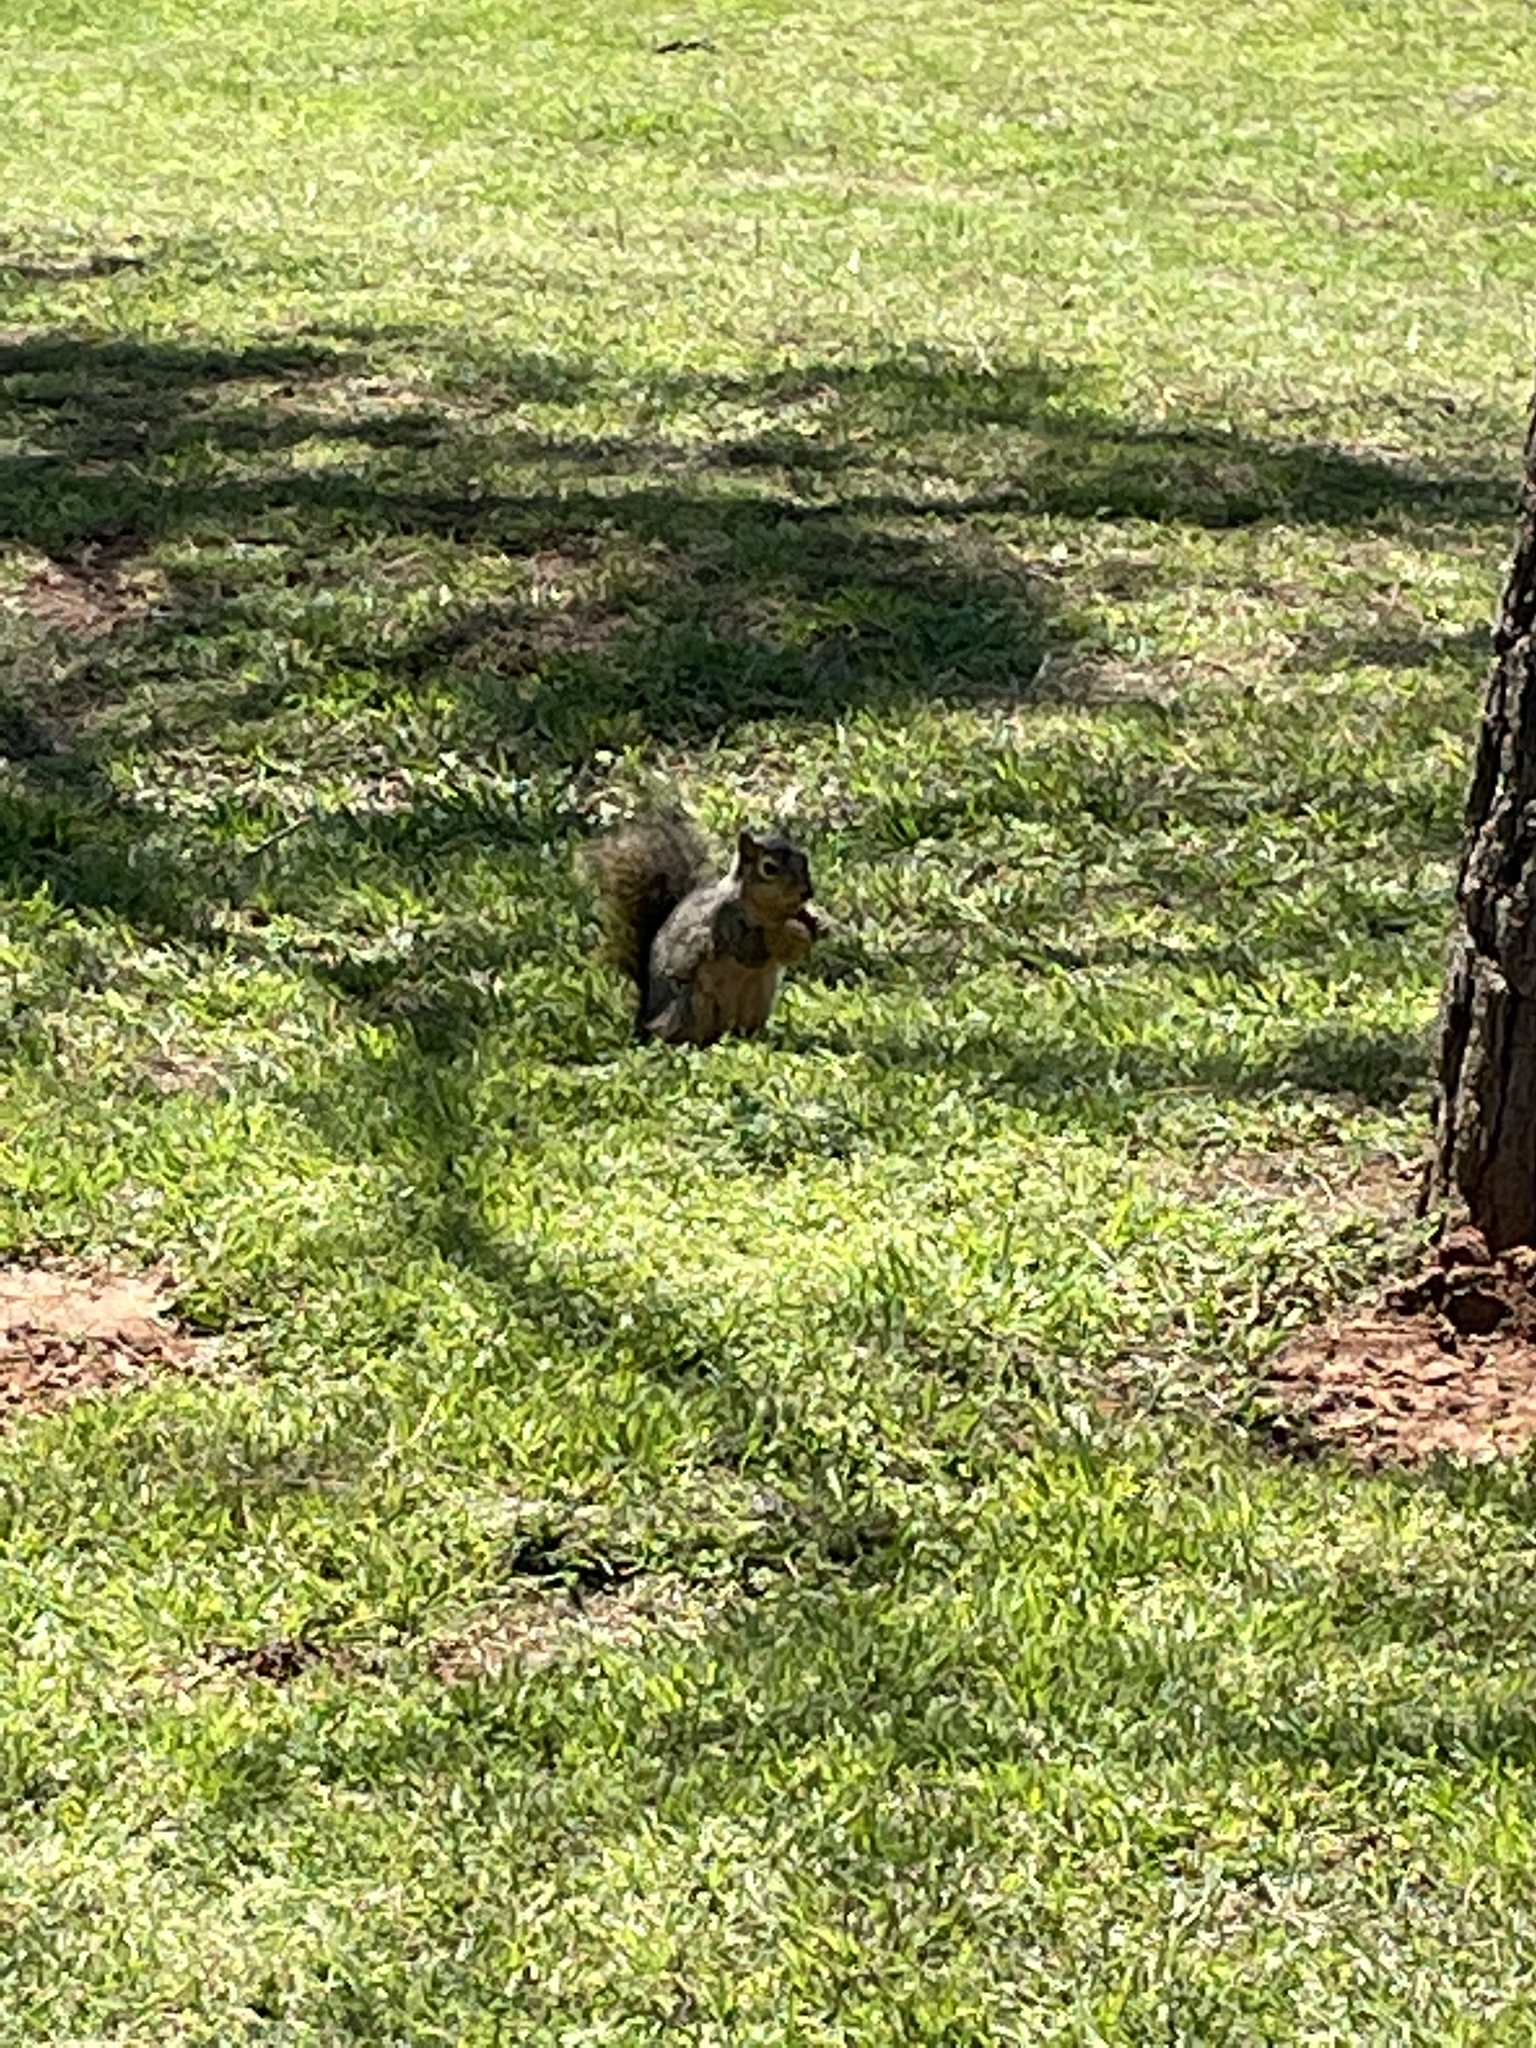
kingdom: Animalia
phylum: Chordata
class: Mammalia
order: Rodentia
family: Sciuridae
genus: Sciurus
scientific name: Sciurus niger
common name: Fox squirrel
